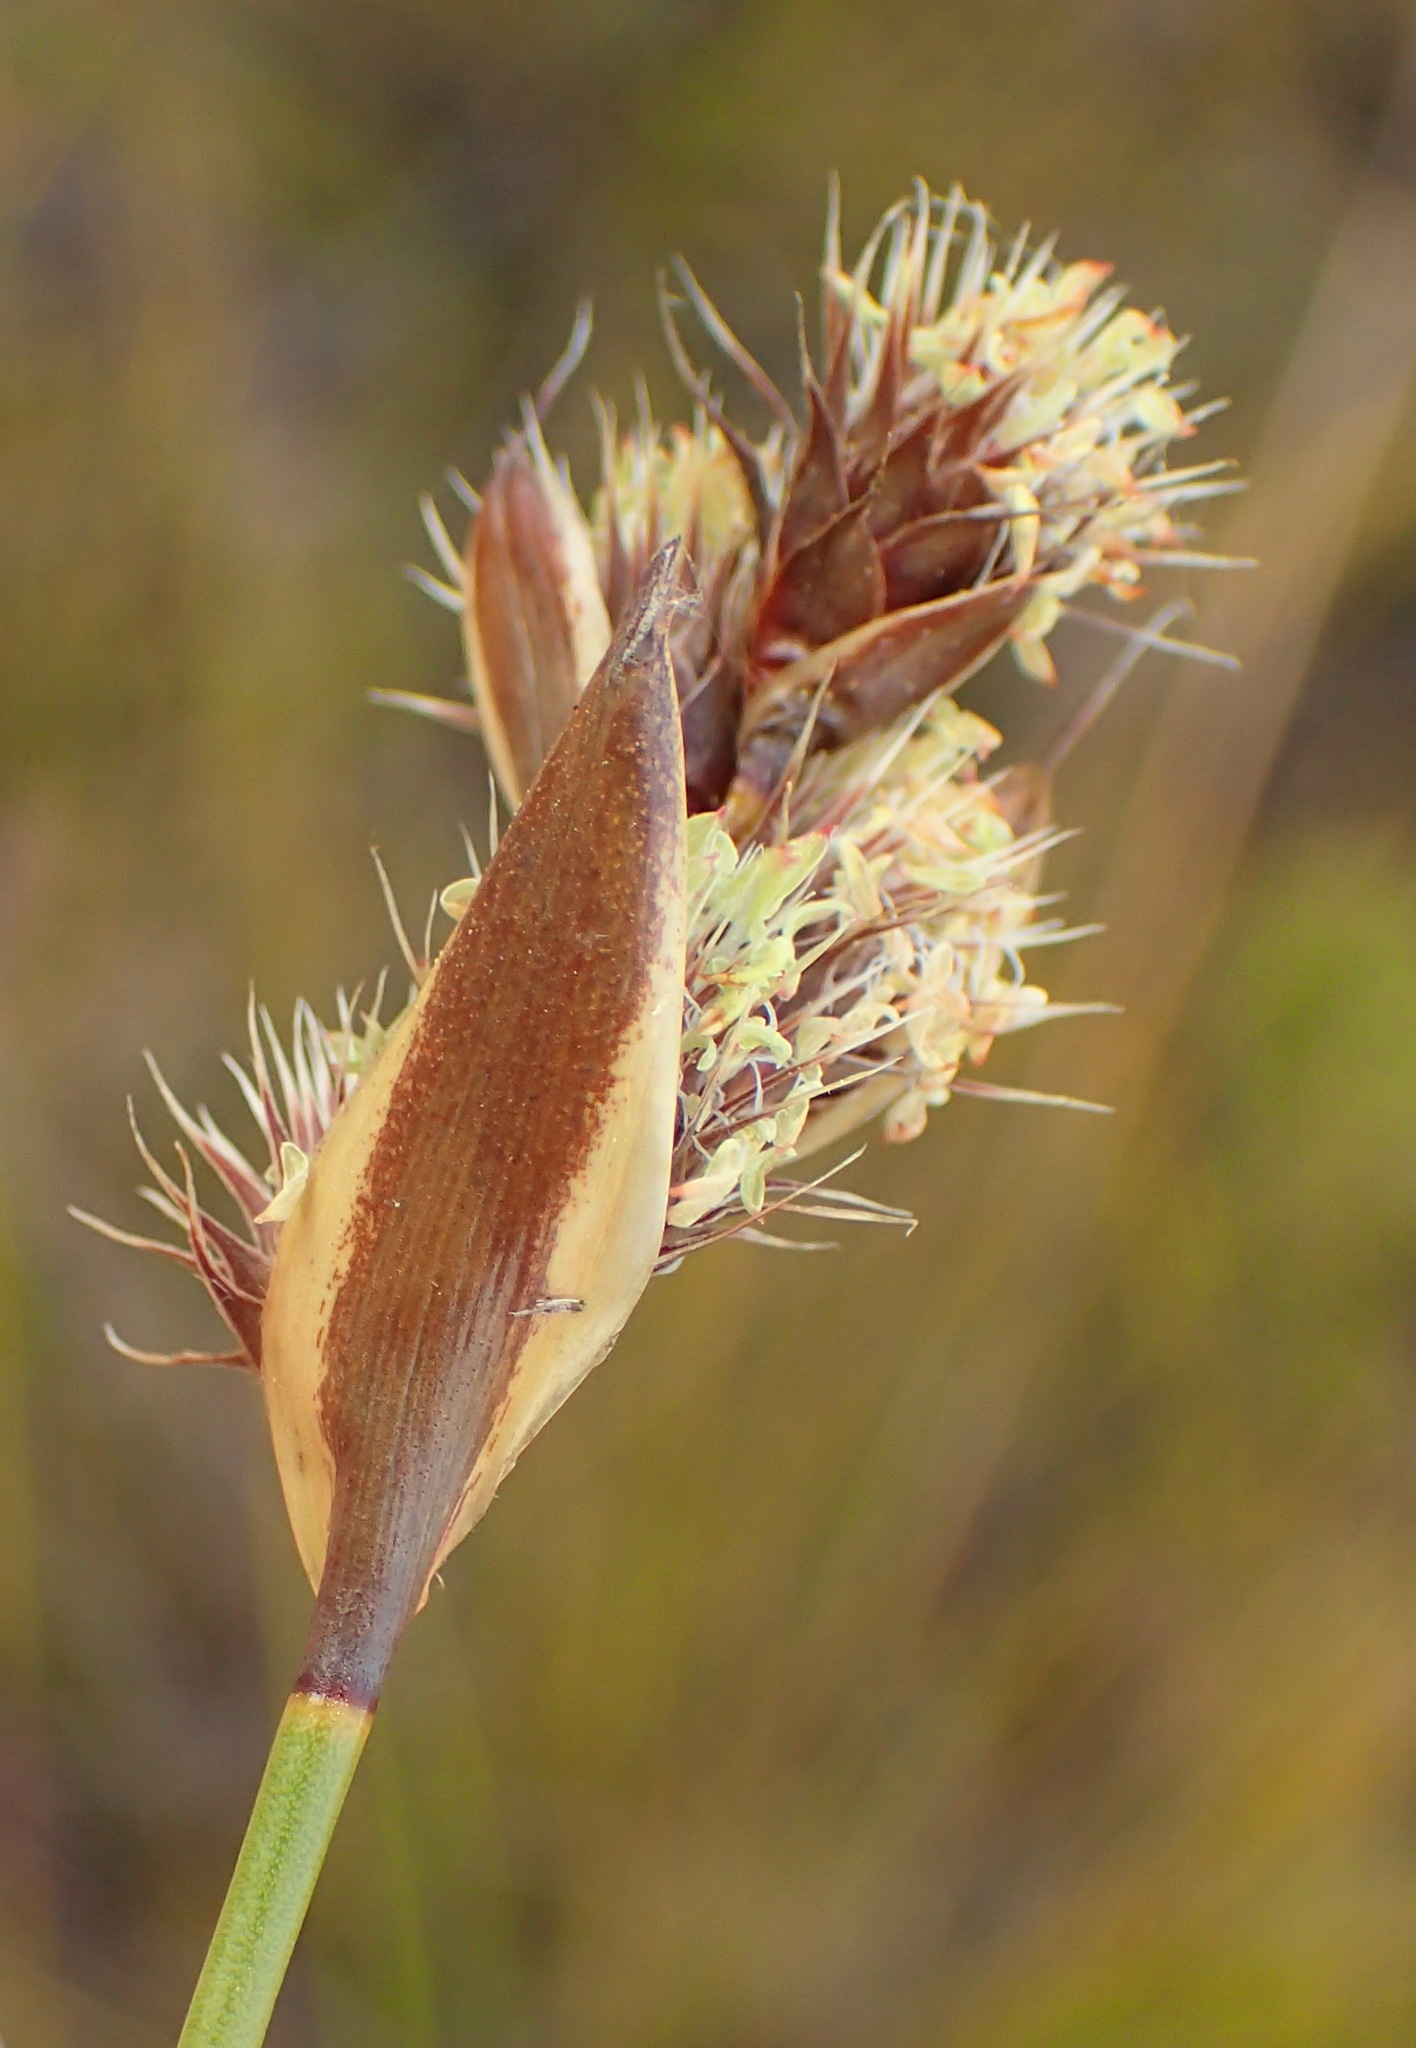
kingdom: Plantae
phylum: Tracheophyta
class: Liliopsida
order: Poales
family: Restionaceae
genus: Hypodiscus
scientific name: Hypodiscus aristatus
